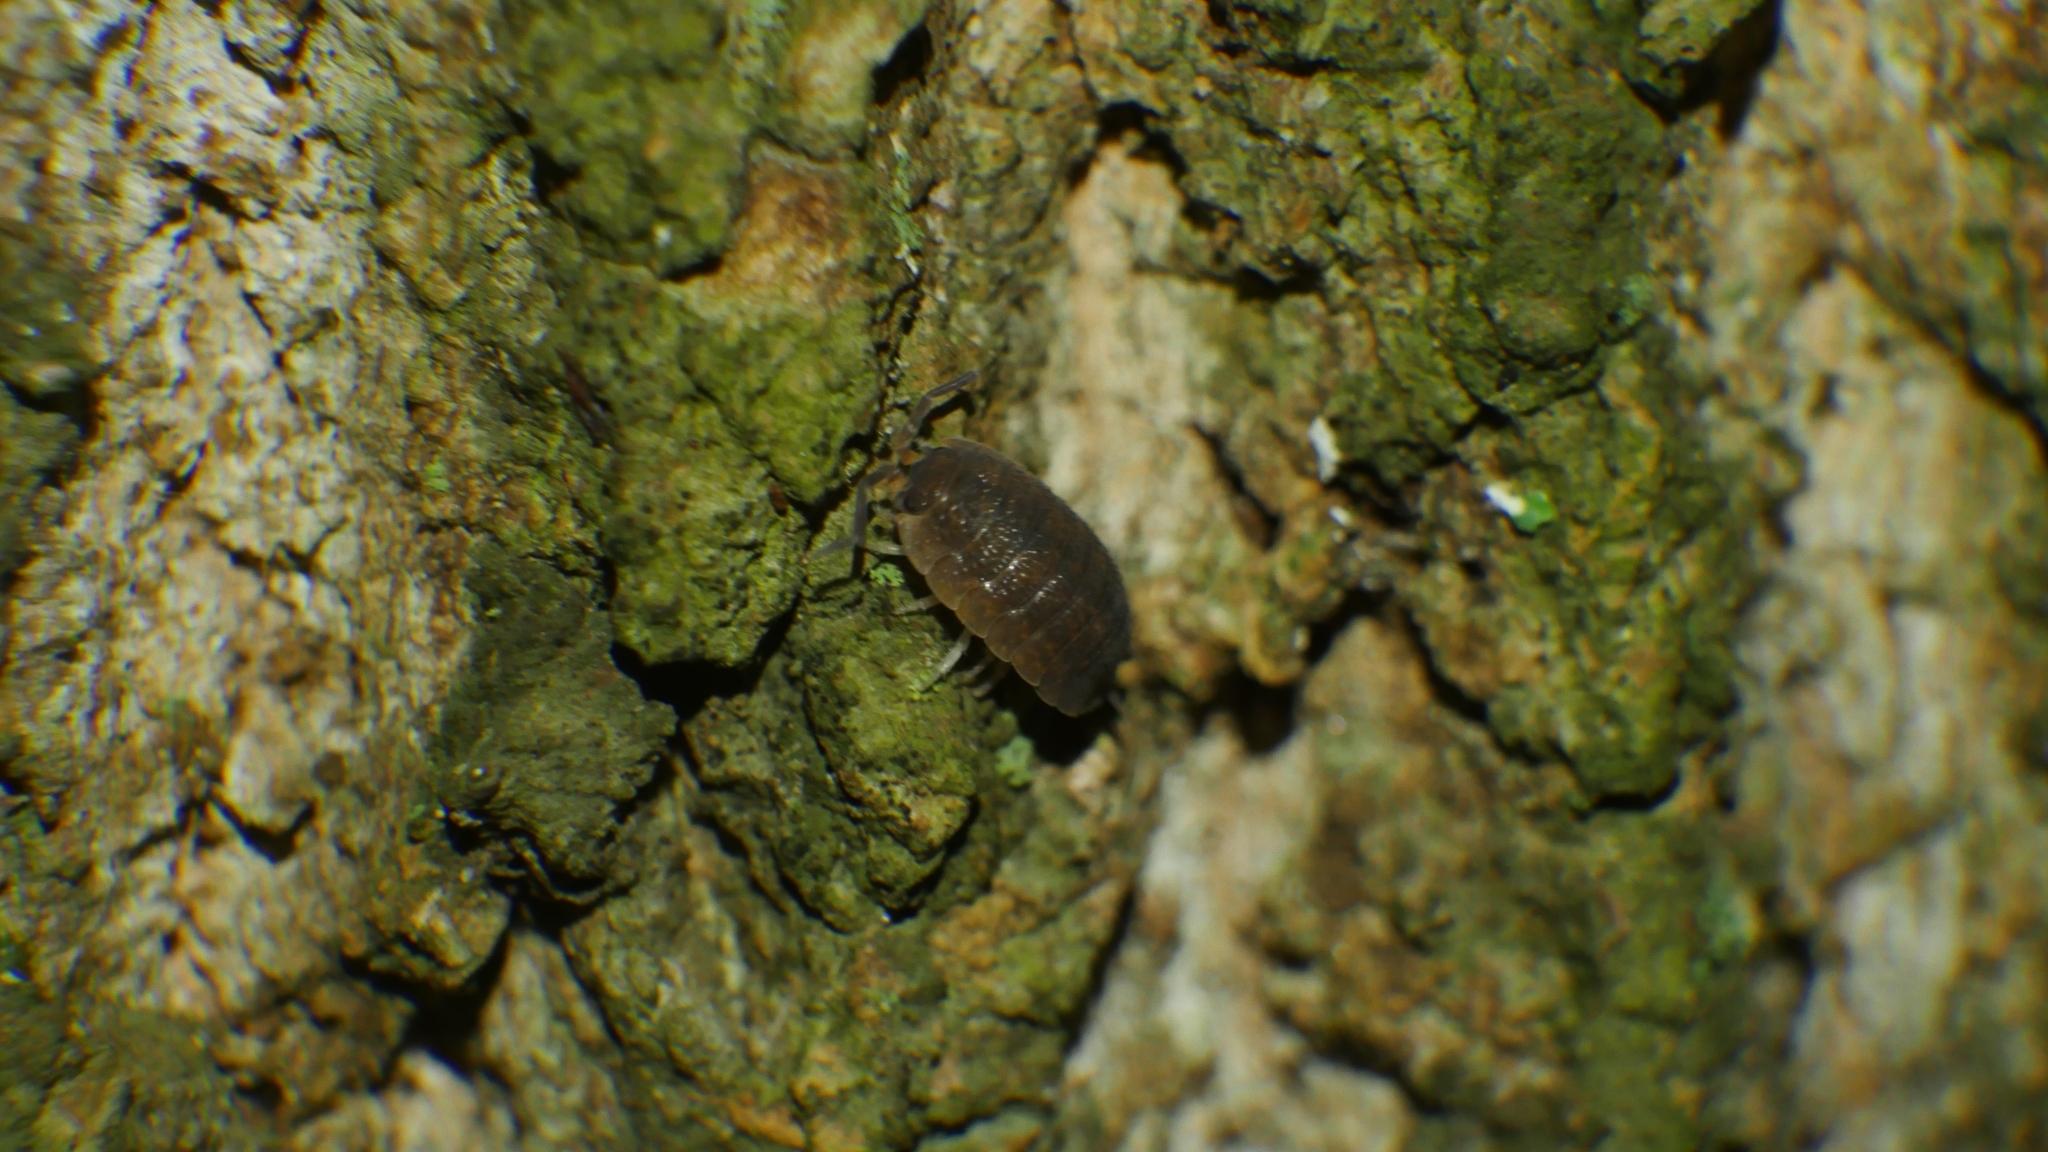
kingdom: Animalia
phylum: Arthropoda
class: Malacostraca
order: Isopoda
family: Porcellionidae
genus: Porcellio
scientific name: Porcellio scaber
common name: Common rough woodlouse
